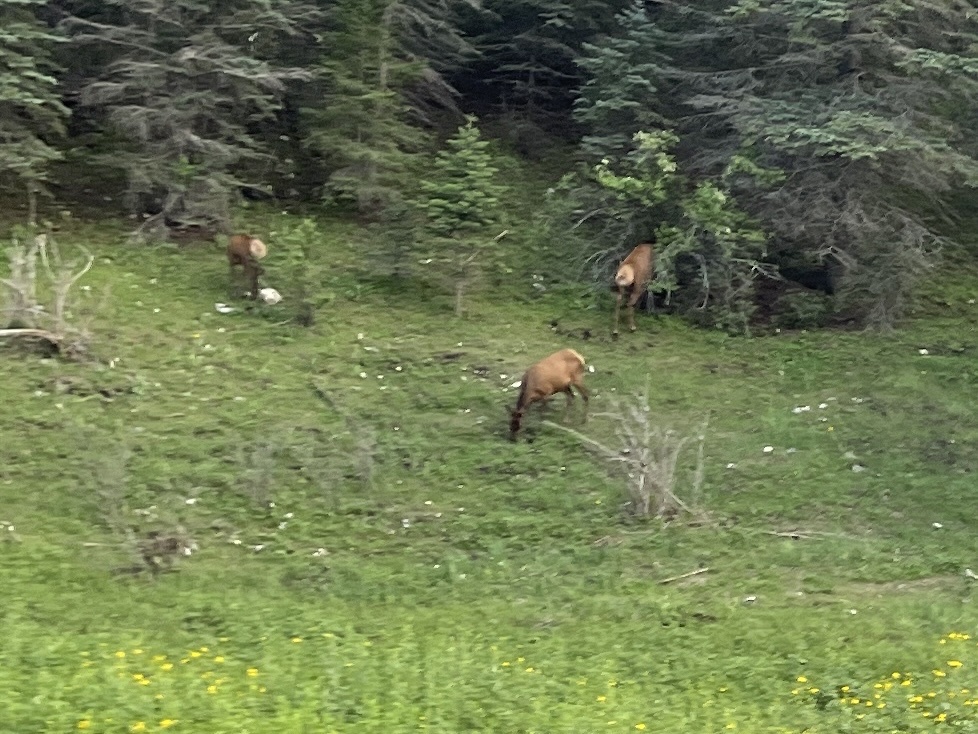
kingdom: Animalia
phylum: Chordata
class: Mammalia
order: Artiodactyla
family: Cervidae
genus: Cervus
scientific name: Cervus elaphus
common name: Red deer
